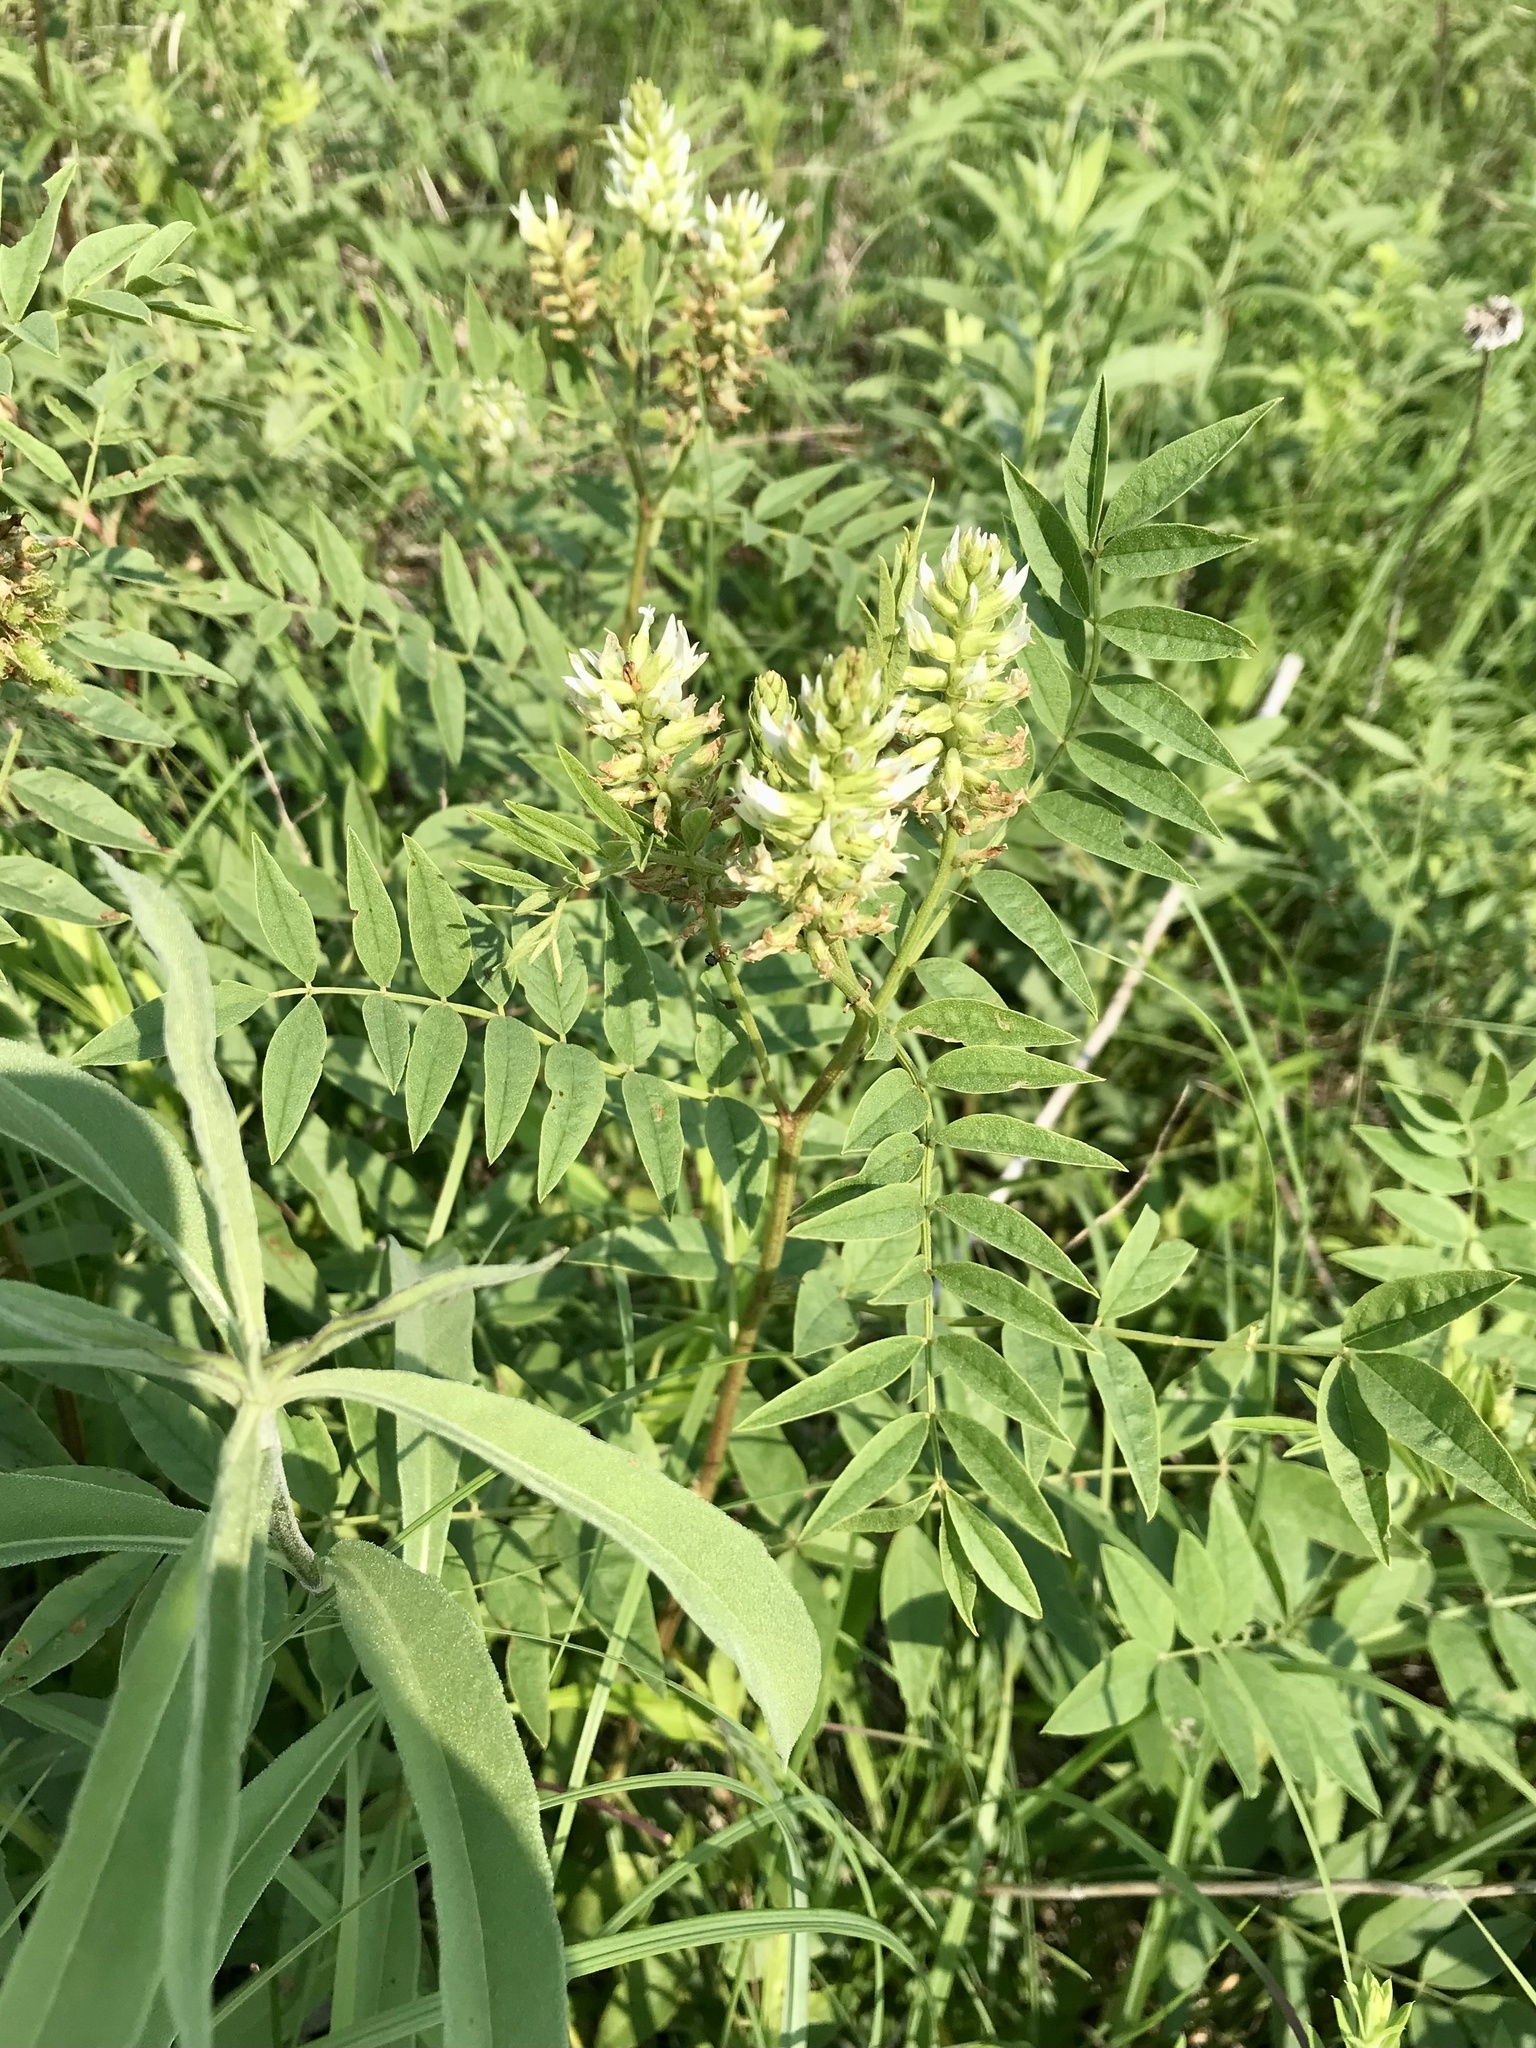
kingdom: Plantae
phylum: Tracheophyta
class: Magnoliopsida
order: Fabales
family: Fabaceae
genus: Glycyrrhiza
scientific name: Glycyrrhiza lepidota
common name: American liquorice
